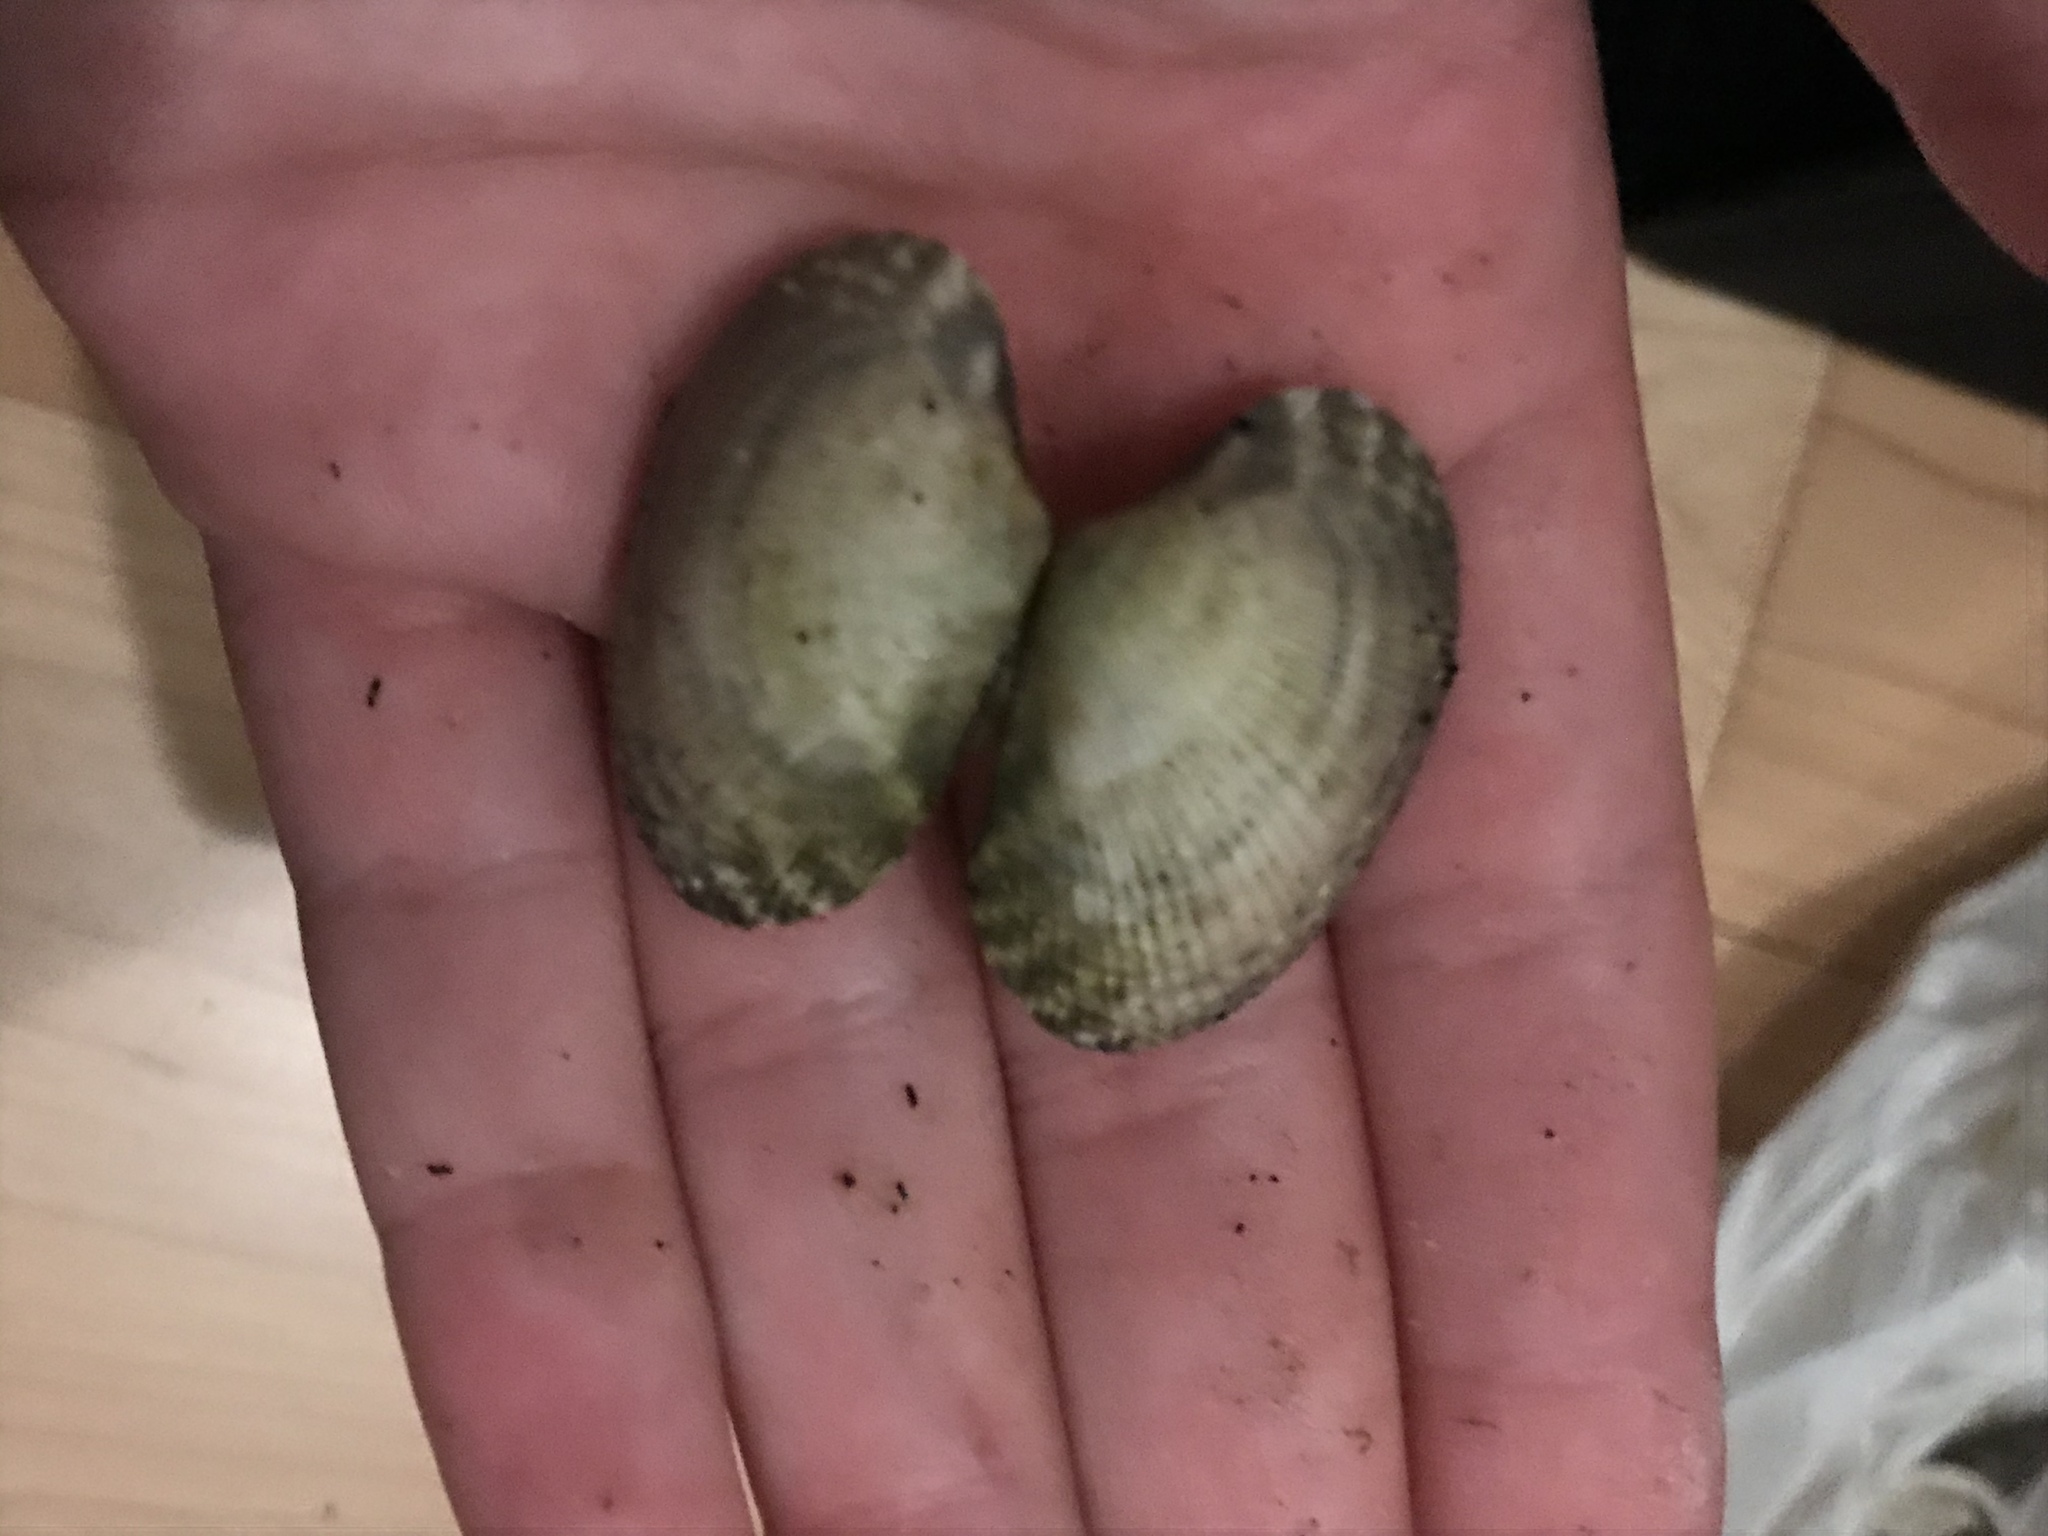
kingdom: Animalia
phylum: Mollusca
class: Bivalvia
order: Venerida
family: Veneridae
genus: Ruditapes
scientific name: Ruditapes philippinarum
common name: Manila clam
